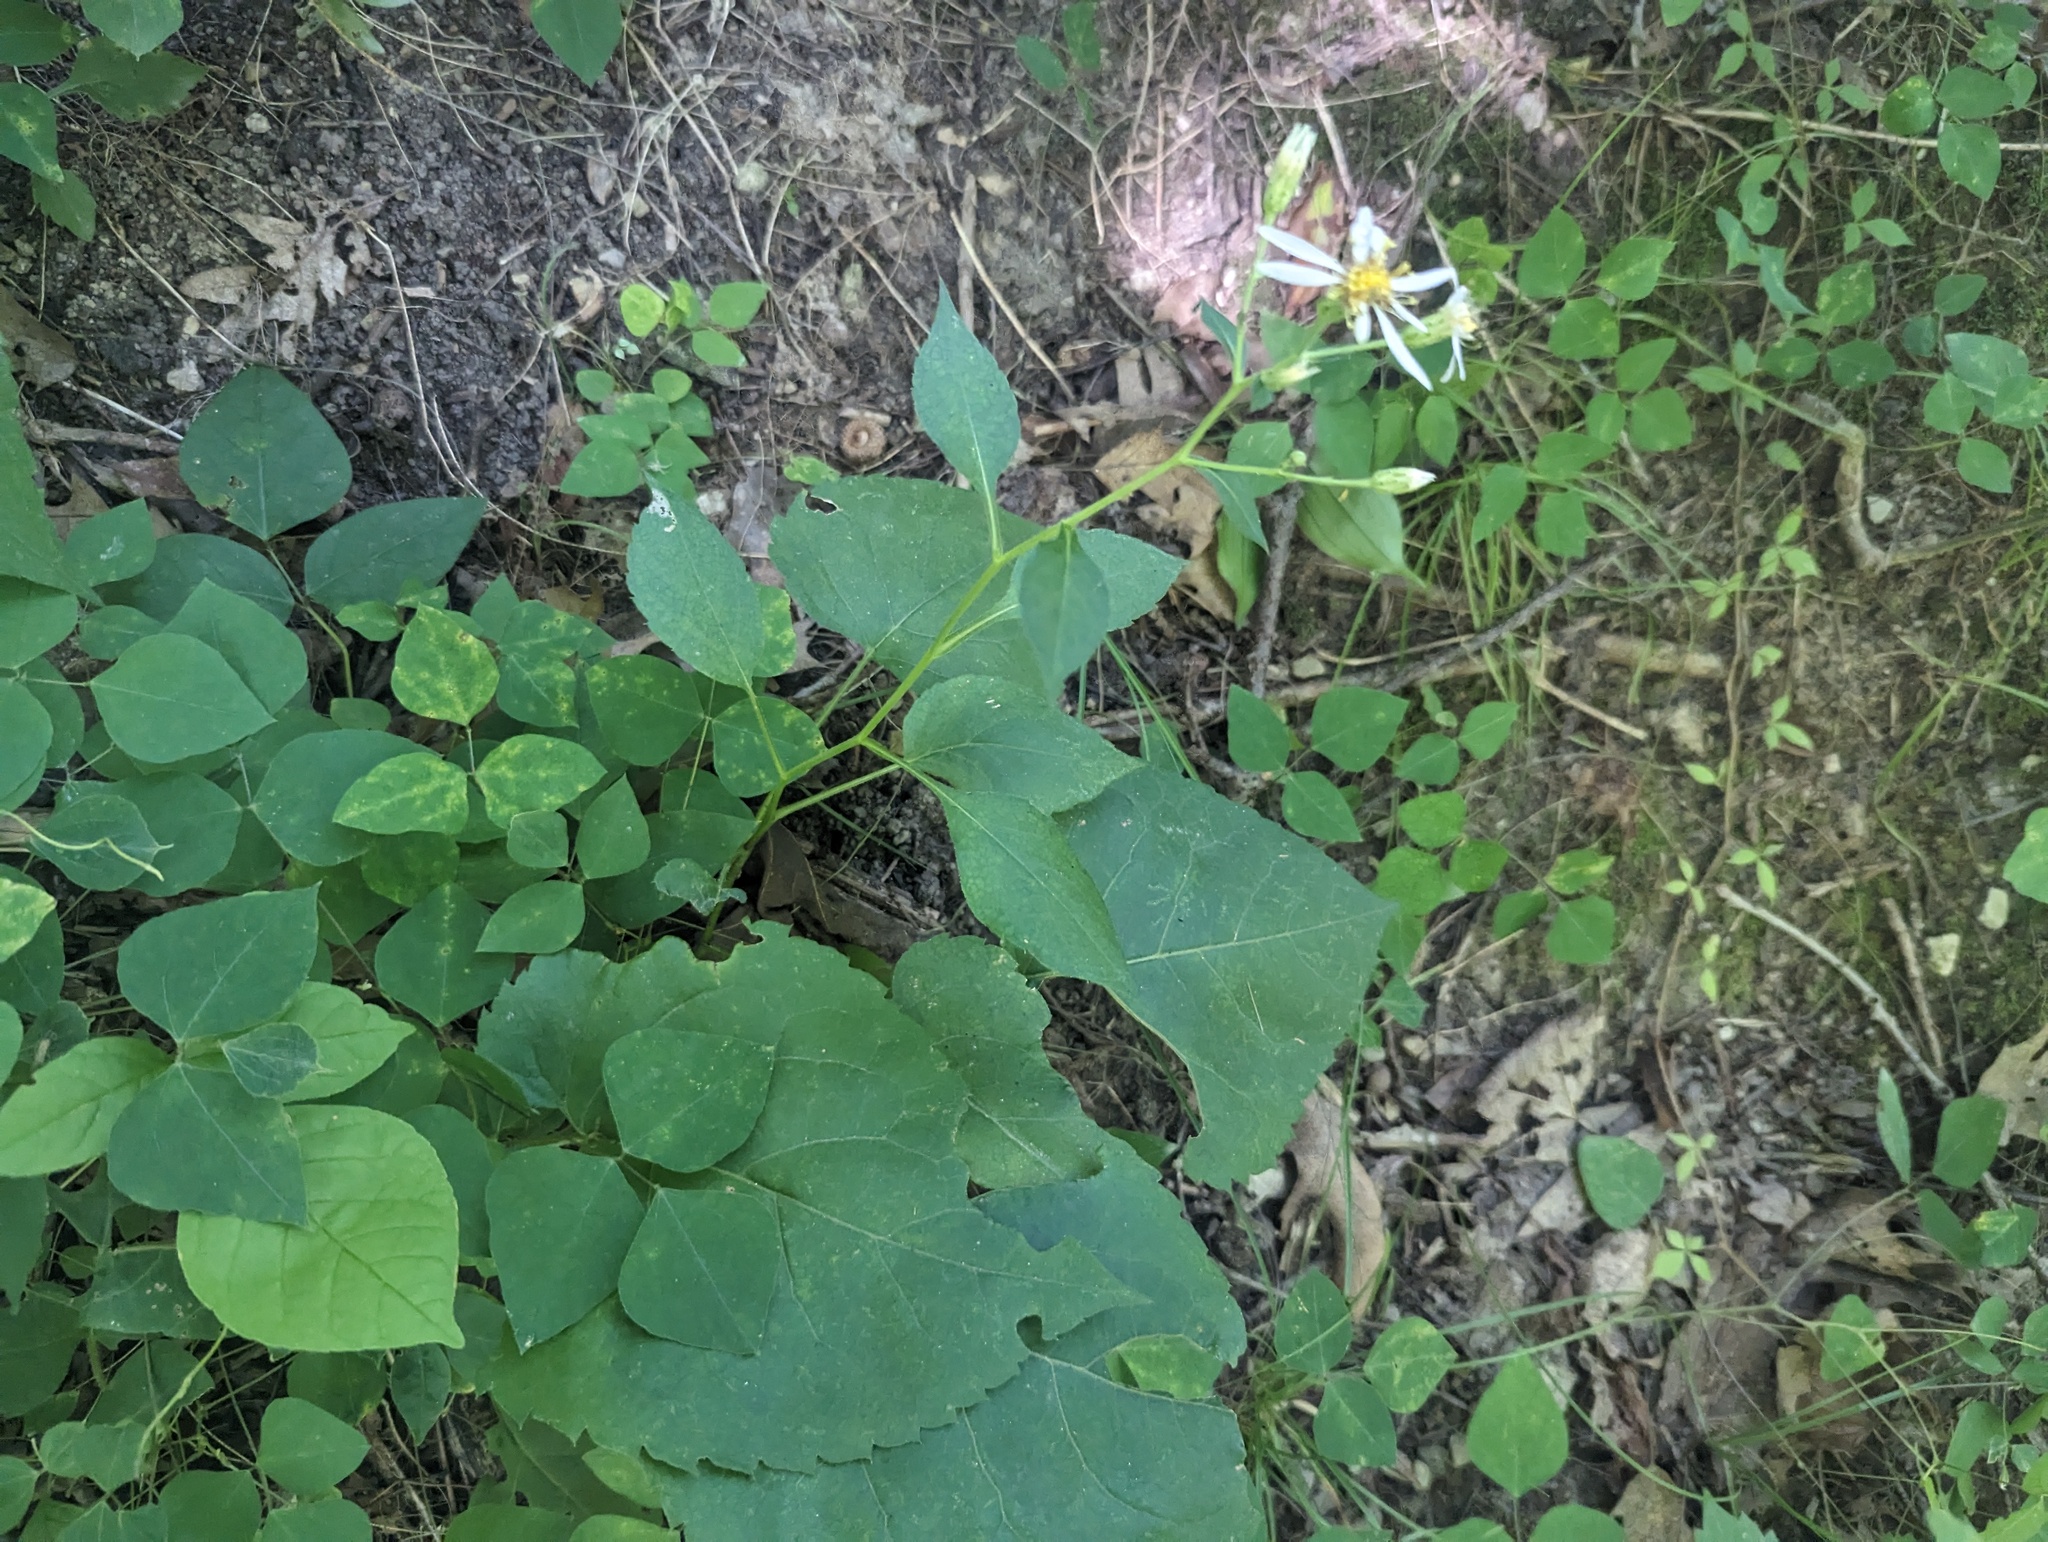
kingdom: Plantae
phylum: Tracheophyta
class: Magnoliopsida
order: Asterales
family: Asteraceae
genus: Eurybia
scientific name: Eurybia macrophylla
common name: Big-leaved aster
